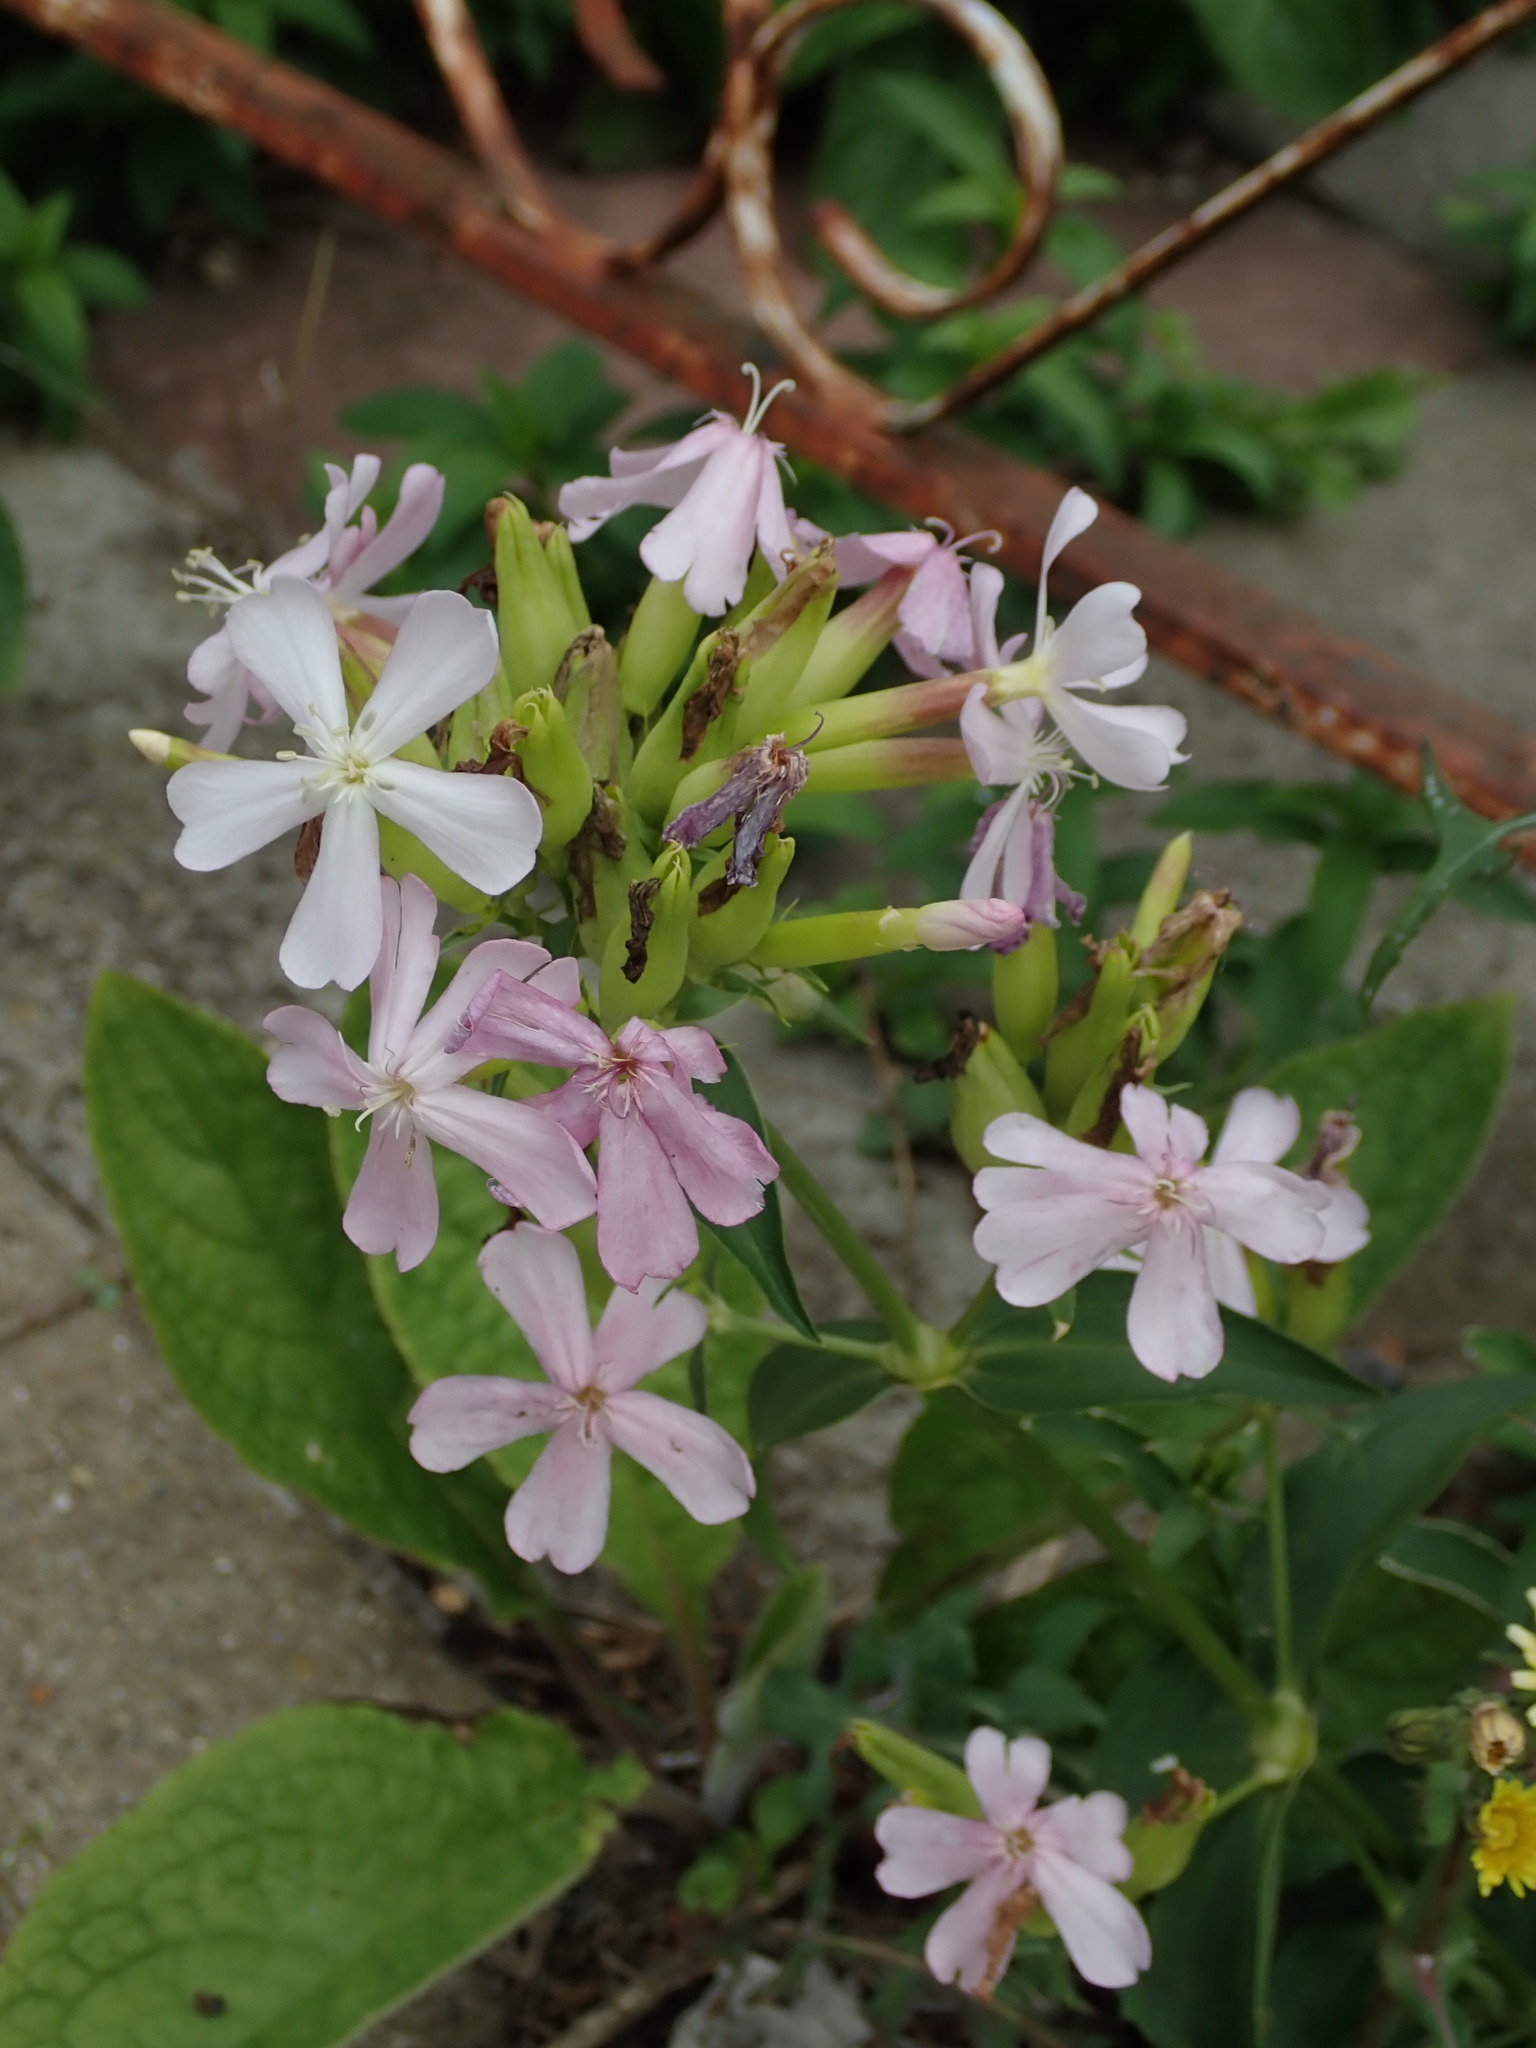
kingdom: Plantae
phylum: Tracheophyta
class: Magnoliopsida
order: Caryophyllales
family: Caryophyllaceae
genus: Saponaria
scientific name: Saponaria officinalis
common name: Soapwort
